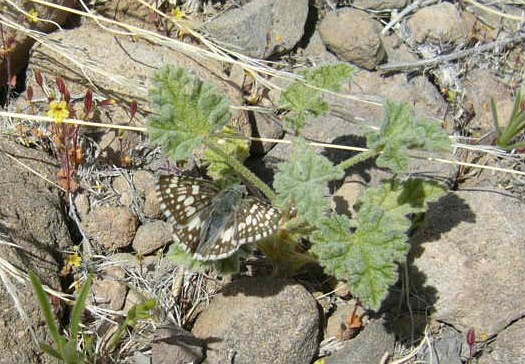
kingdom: Animalia
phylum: Arthropoda
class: Insecta
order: Lepidoptera
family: Hesperiidae
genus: Burnsius
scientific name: Burnsius albezens
